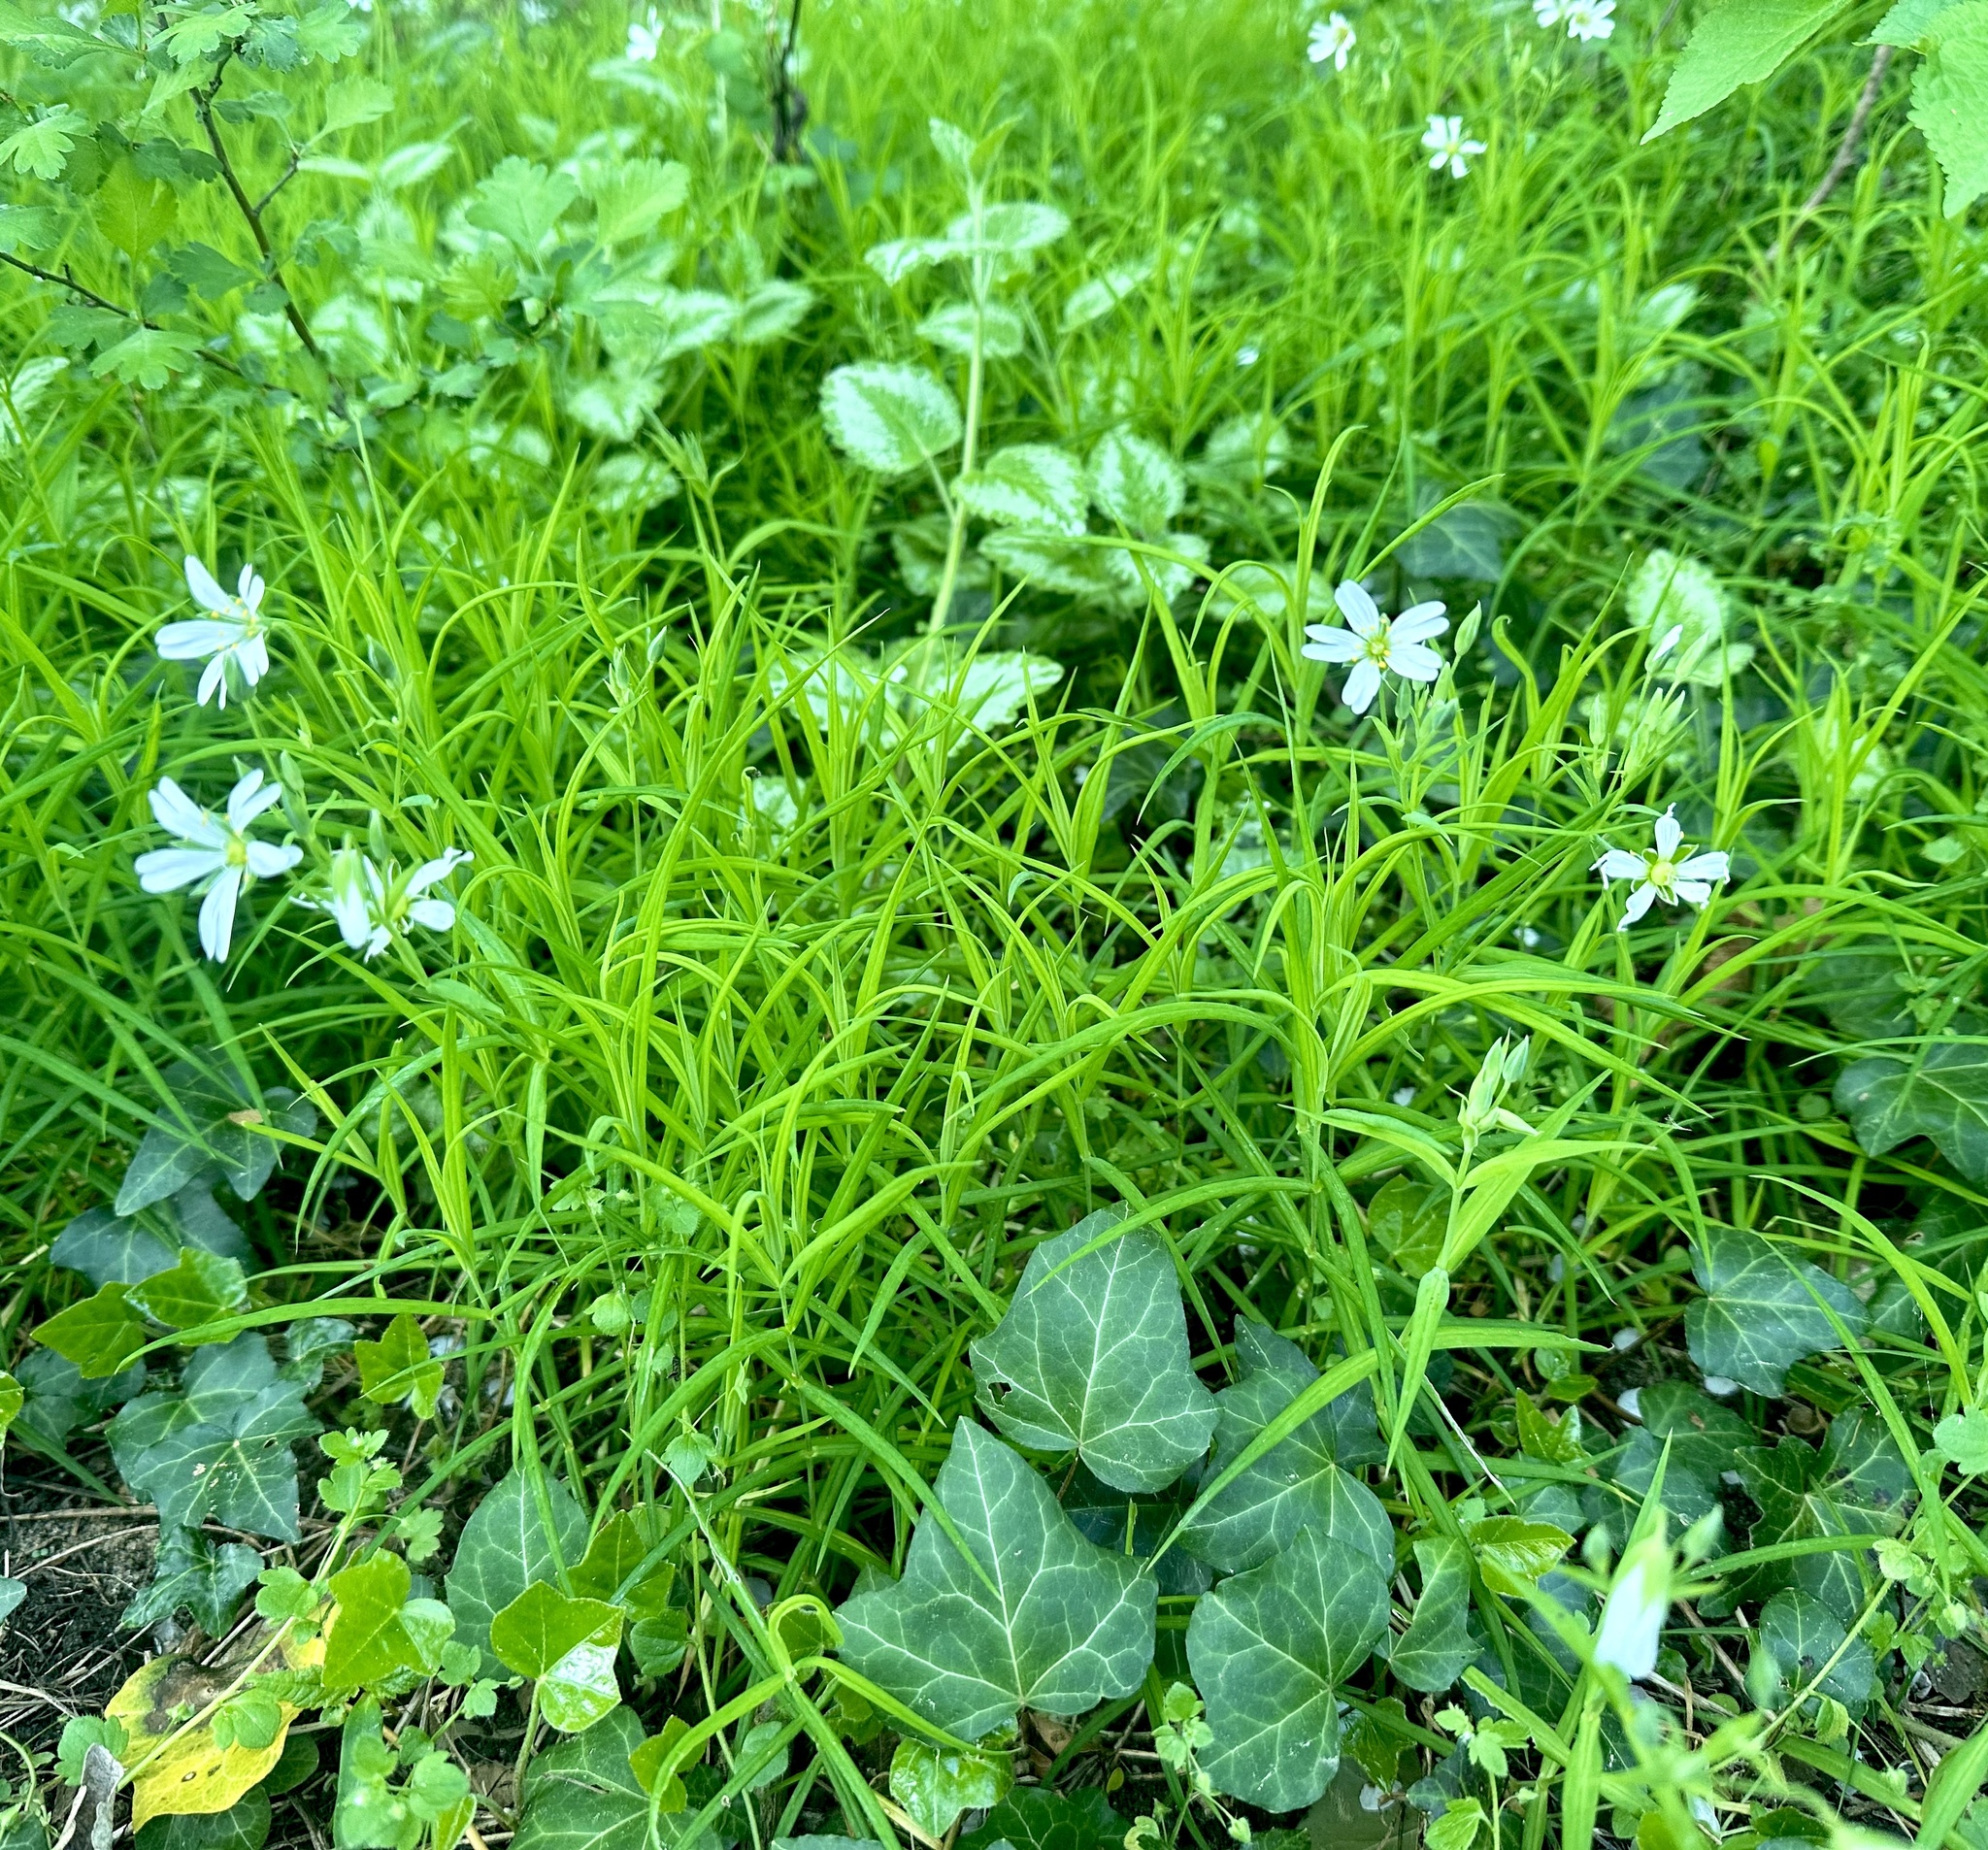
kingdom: Plantae
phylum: Tracheophyta
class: Magnoliopsida
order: Caryophyllales
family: Caryophyllaceae
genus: Rabelera
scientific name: Rabelera holostea
